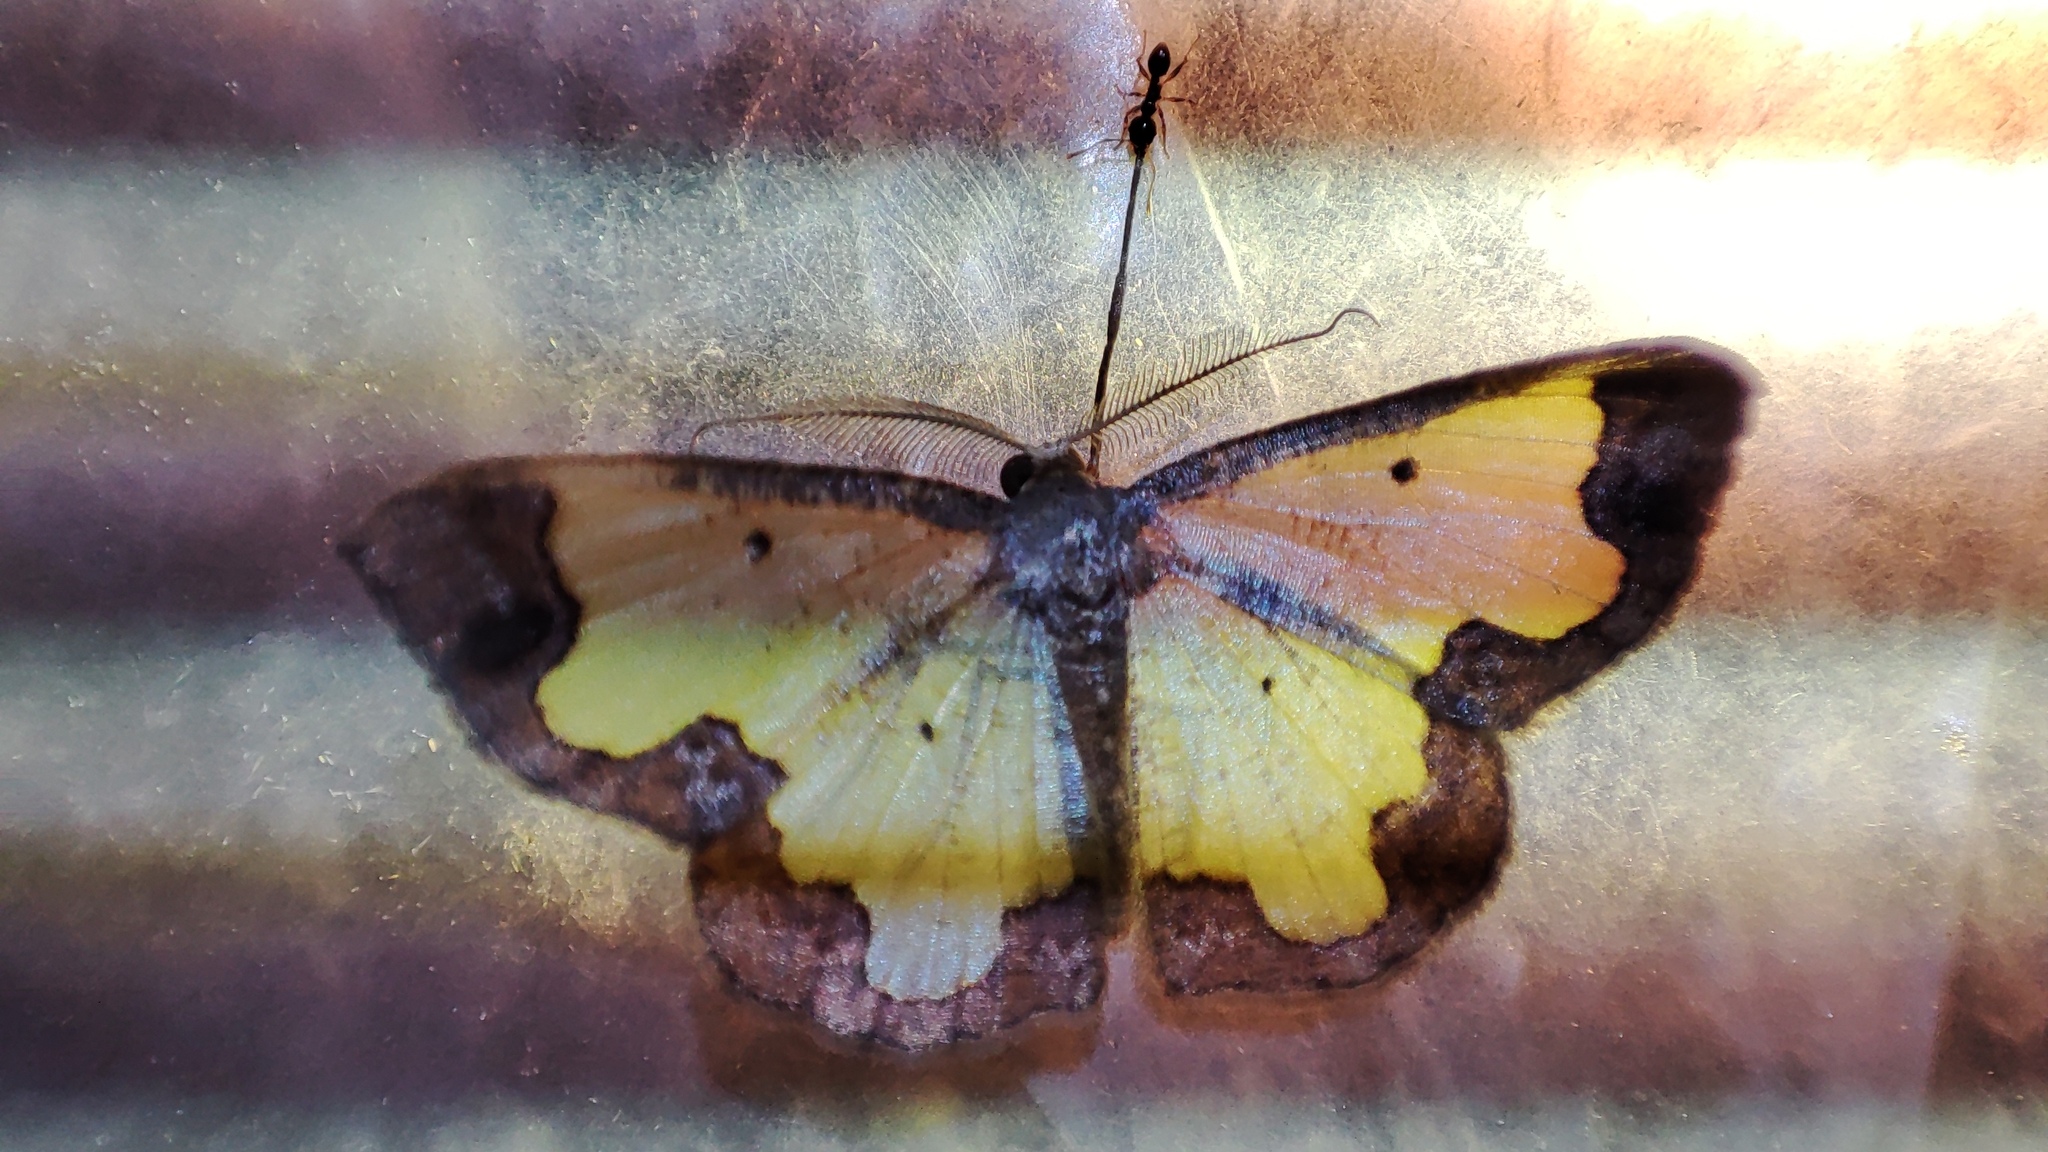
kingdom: Animalia
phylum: Arthropoda
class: Insecta
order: Lepidoptera
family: Geometridae
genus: Zamarada
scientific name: Zamarada transvisaria
